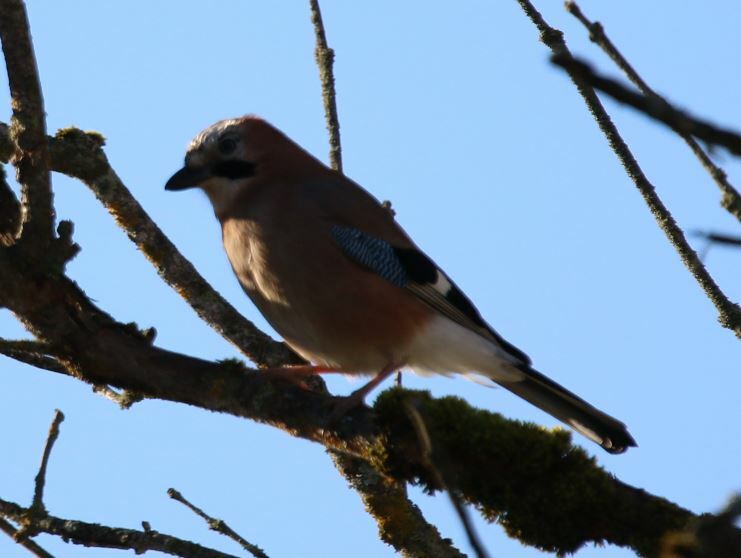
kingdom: Animalia
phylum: Chordata
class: Aves
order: Passeriformes
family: Corvidae
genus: Garrulus
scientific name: Garrulus glandarius
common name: Eurasian jay
